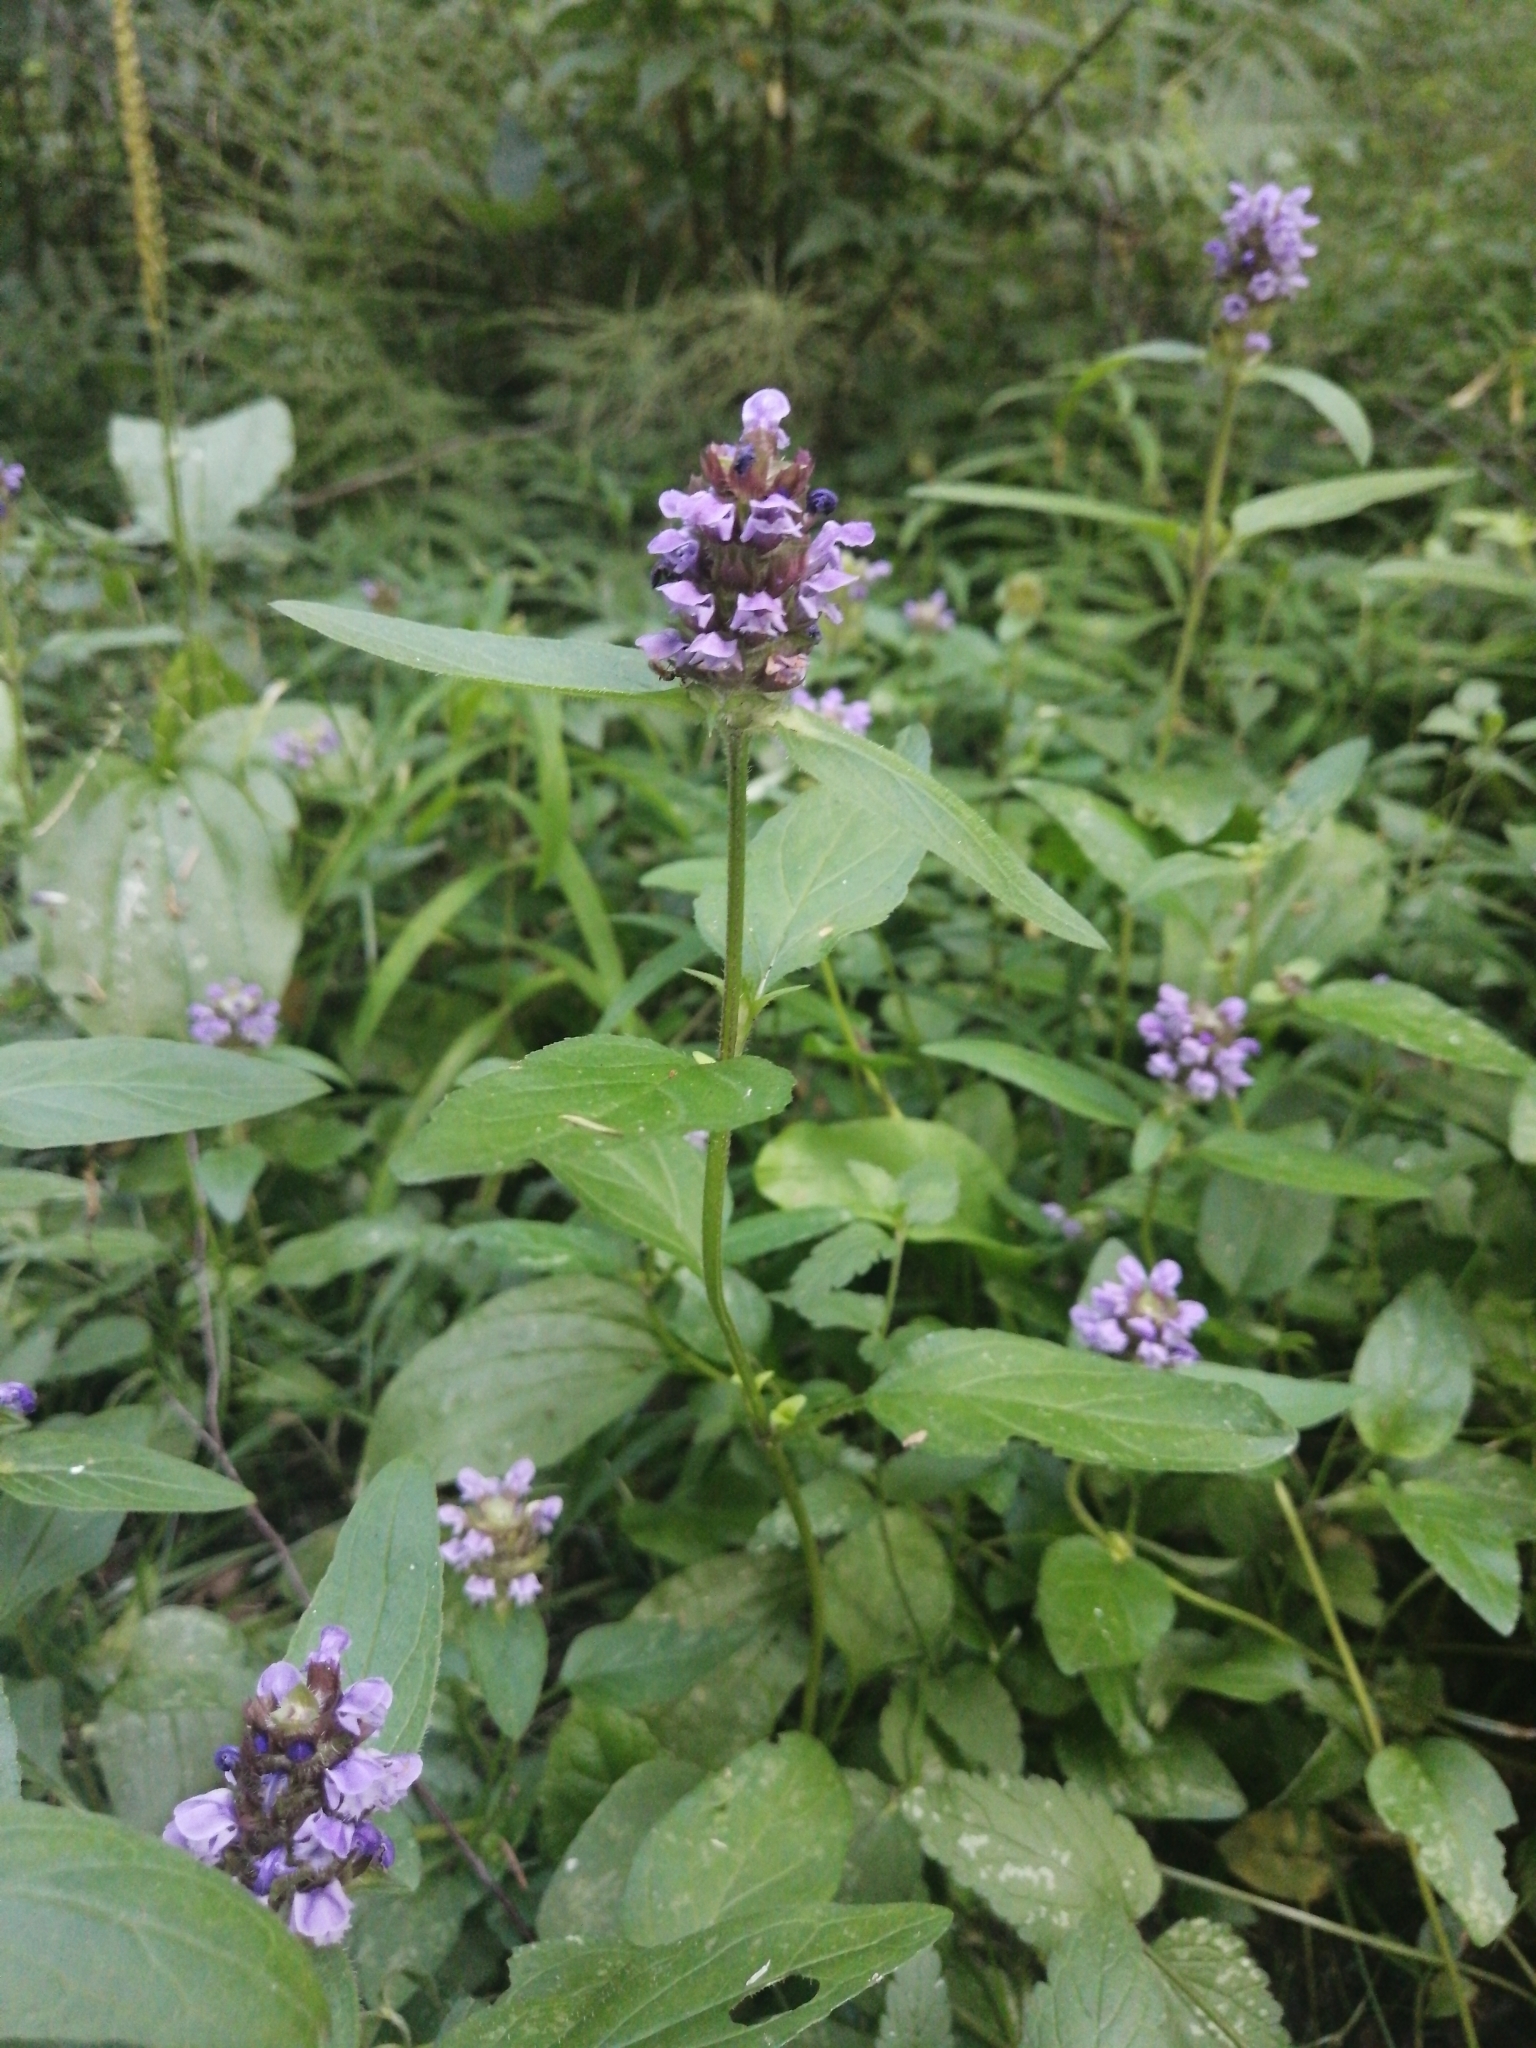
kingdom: Plantae
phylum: Tracheophyta
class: Magnoliopsida
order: Lamiales
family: Lamiaceae
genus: Prunella
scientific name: Prunella vulgaris
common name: Heal-all
